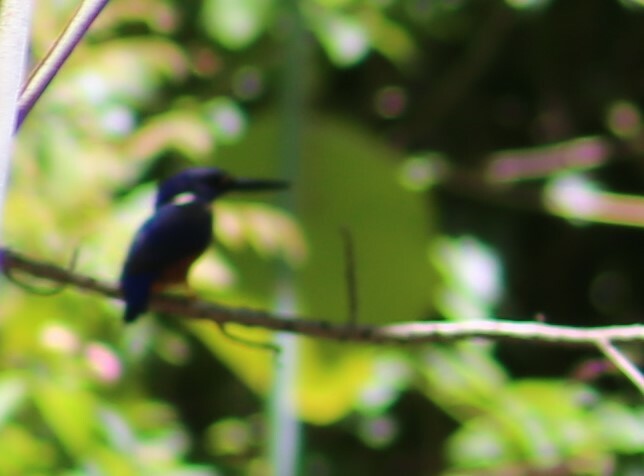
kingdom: Animalia
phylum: Chordata
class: Aves
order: Coraciiformes
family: Alcedinidae
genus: Ceyx
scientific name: Ceyx azureus
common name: Azure kingfisher
